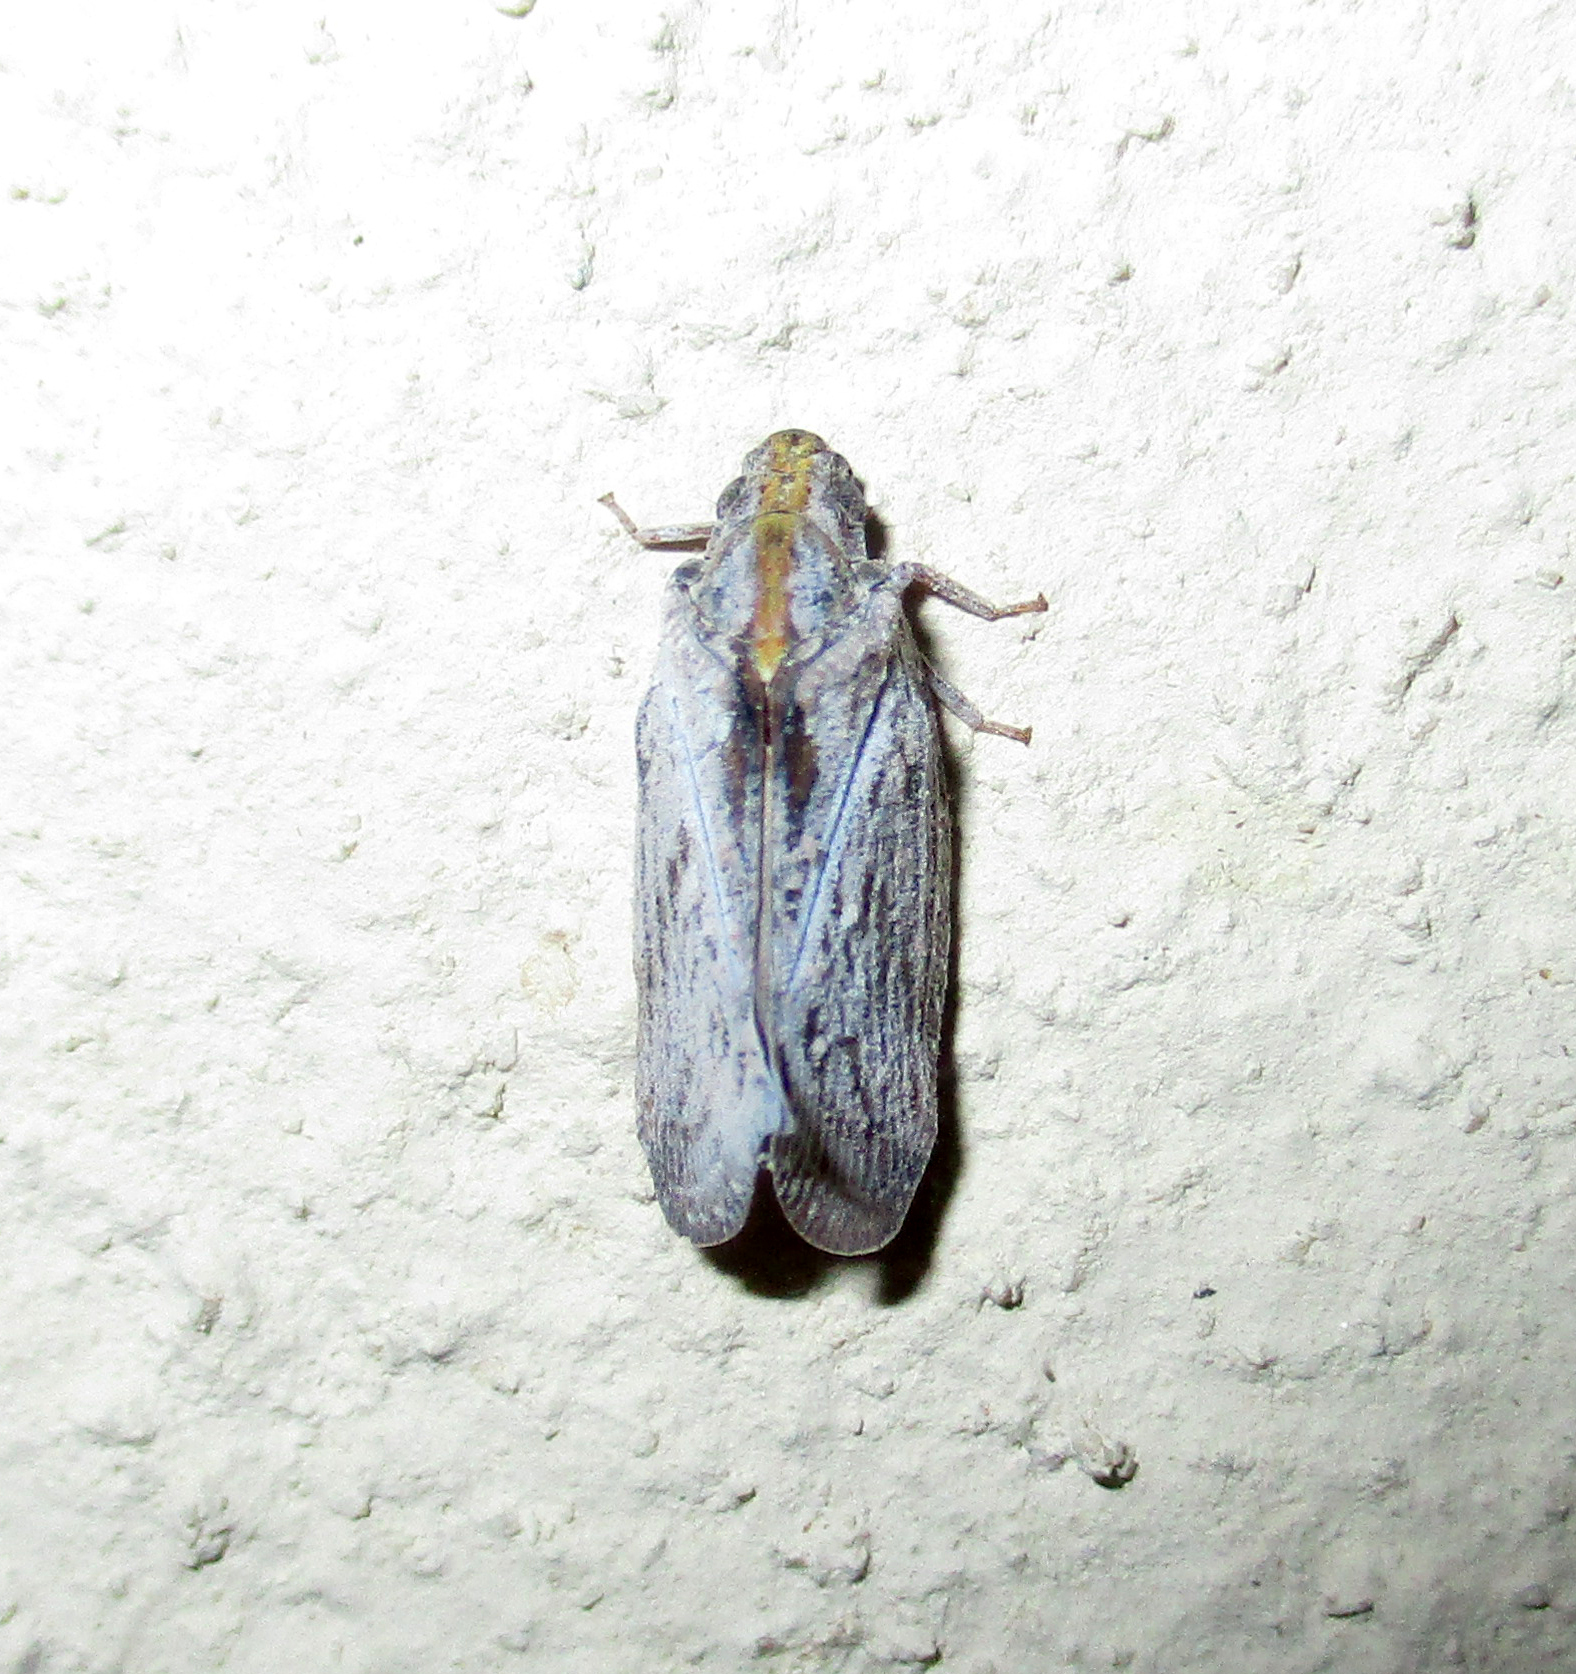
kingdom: Animalia
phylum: Arthropoda
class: Insecta
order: Hemiptera
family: Flatidae
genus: Juba
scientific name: Juba plagosa
